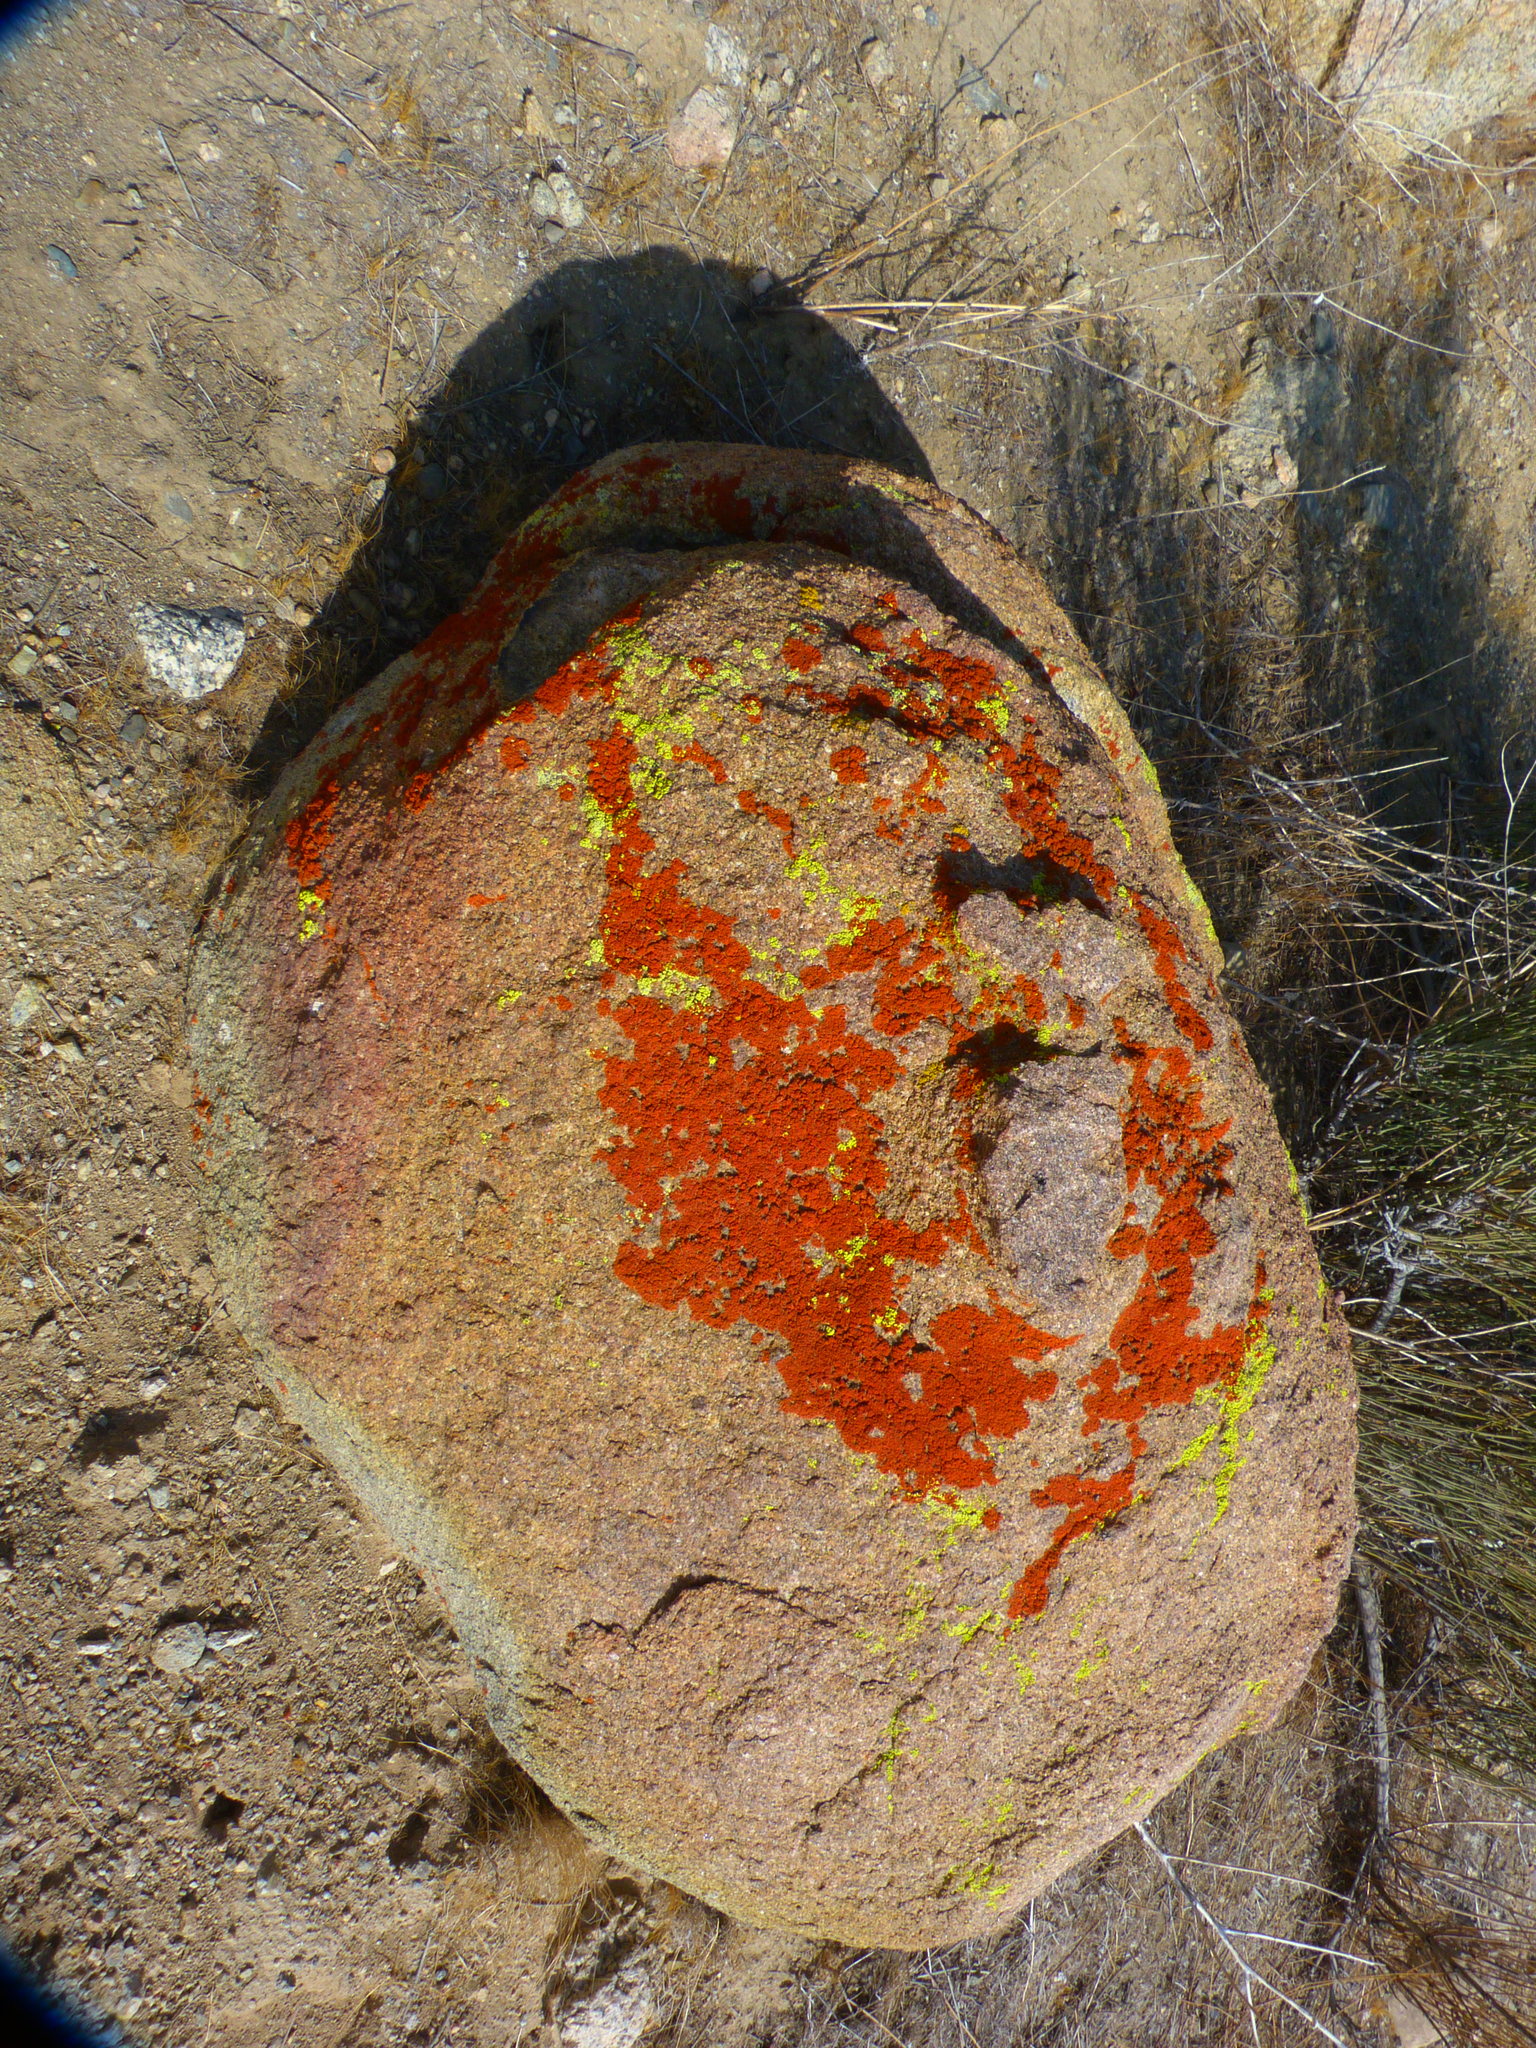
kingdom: Fungi
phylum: Ascomycota
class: Lecanoromycetes
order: Teloschistales
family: Teloschistaceae
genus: Xanthoria
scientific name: Xanthoria elegans
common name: Elegant sunburst lichen
